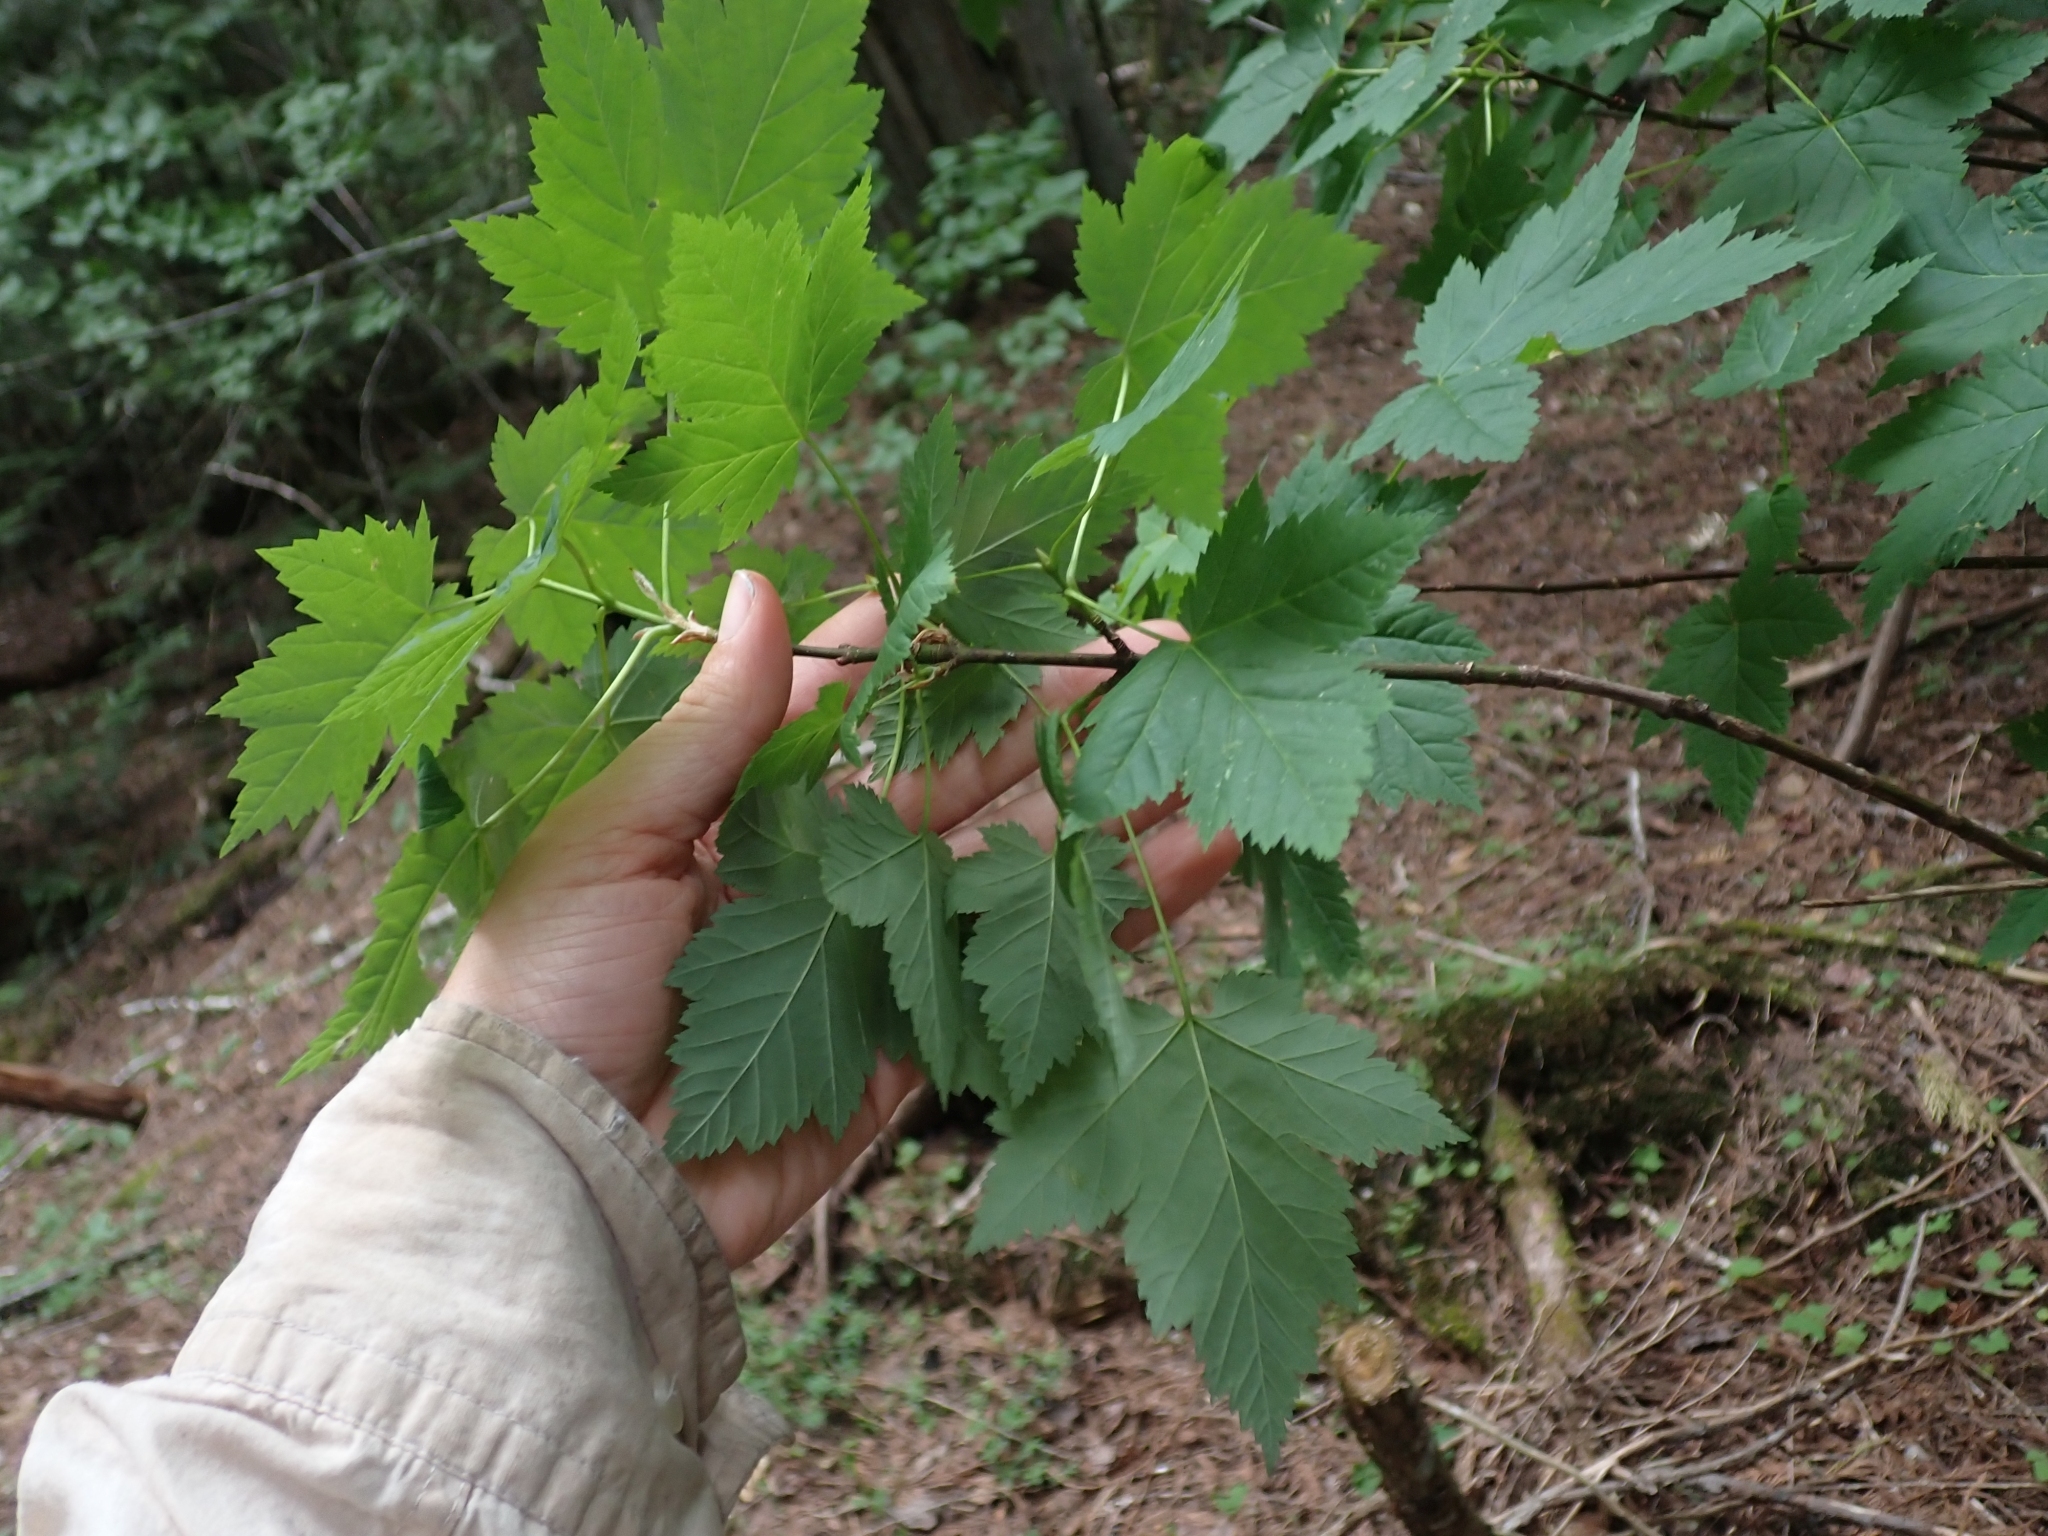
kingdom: Plantae
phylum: Tracheophyta
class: Magnoliopsida
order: Sapindales
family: Sapindaceae
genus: Acer
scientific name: Acer glabrum
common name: Rocky mountain maple
